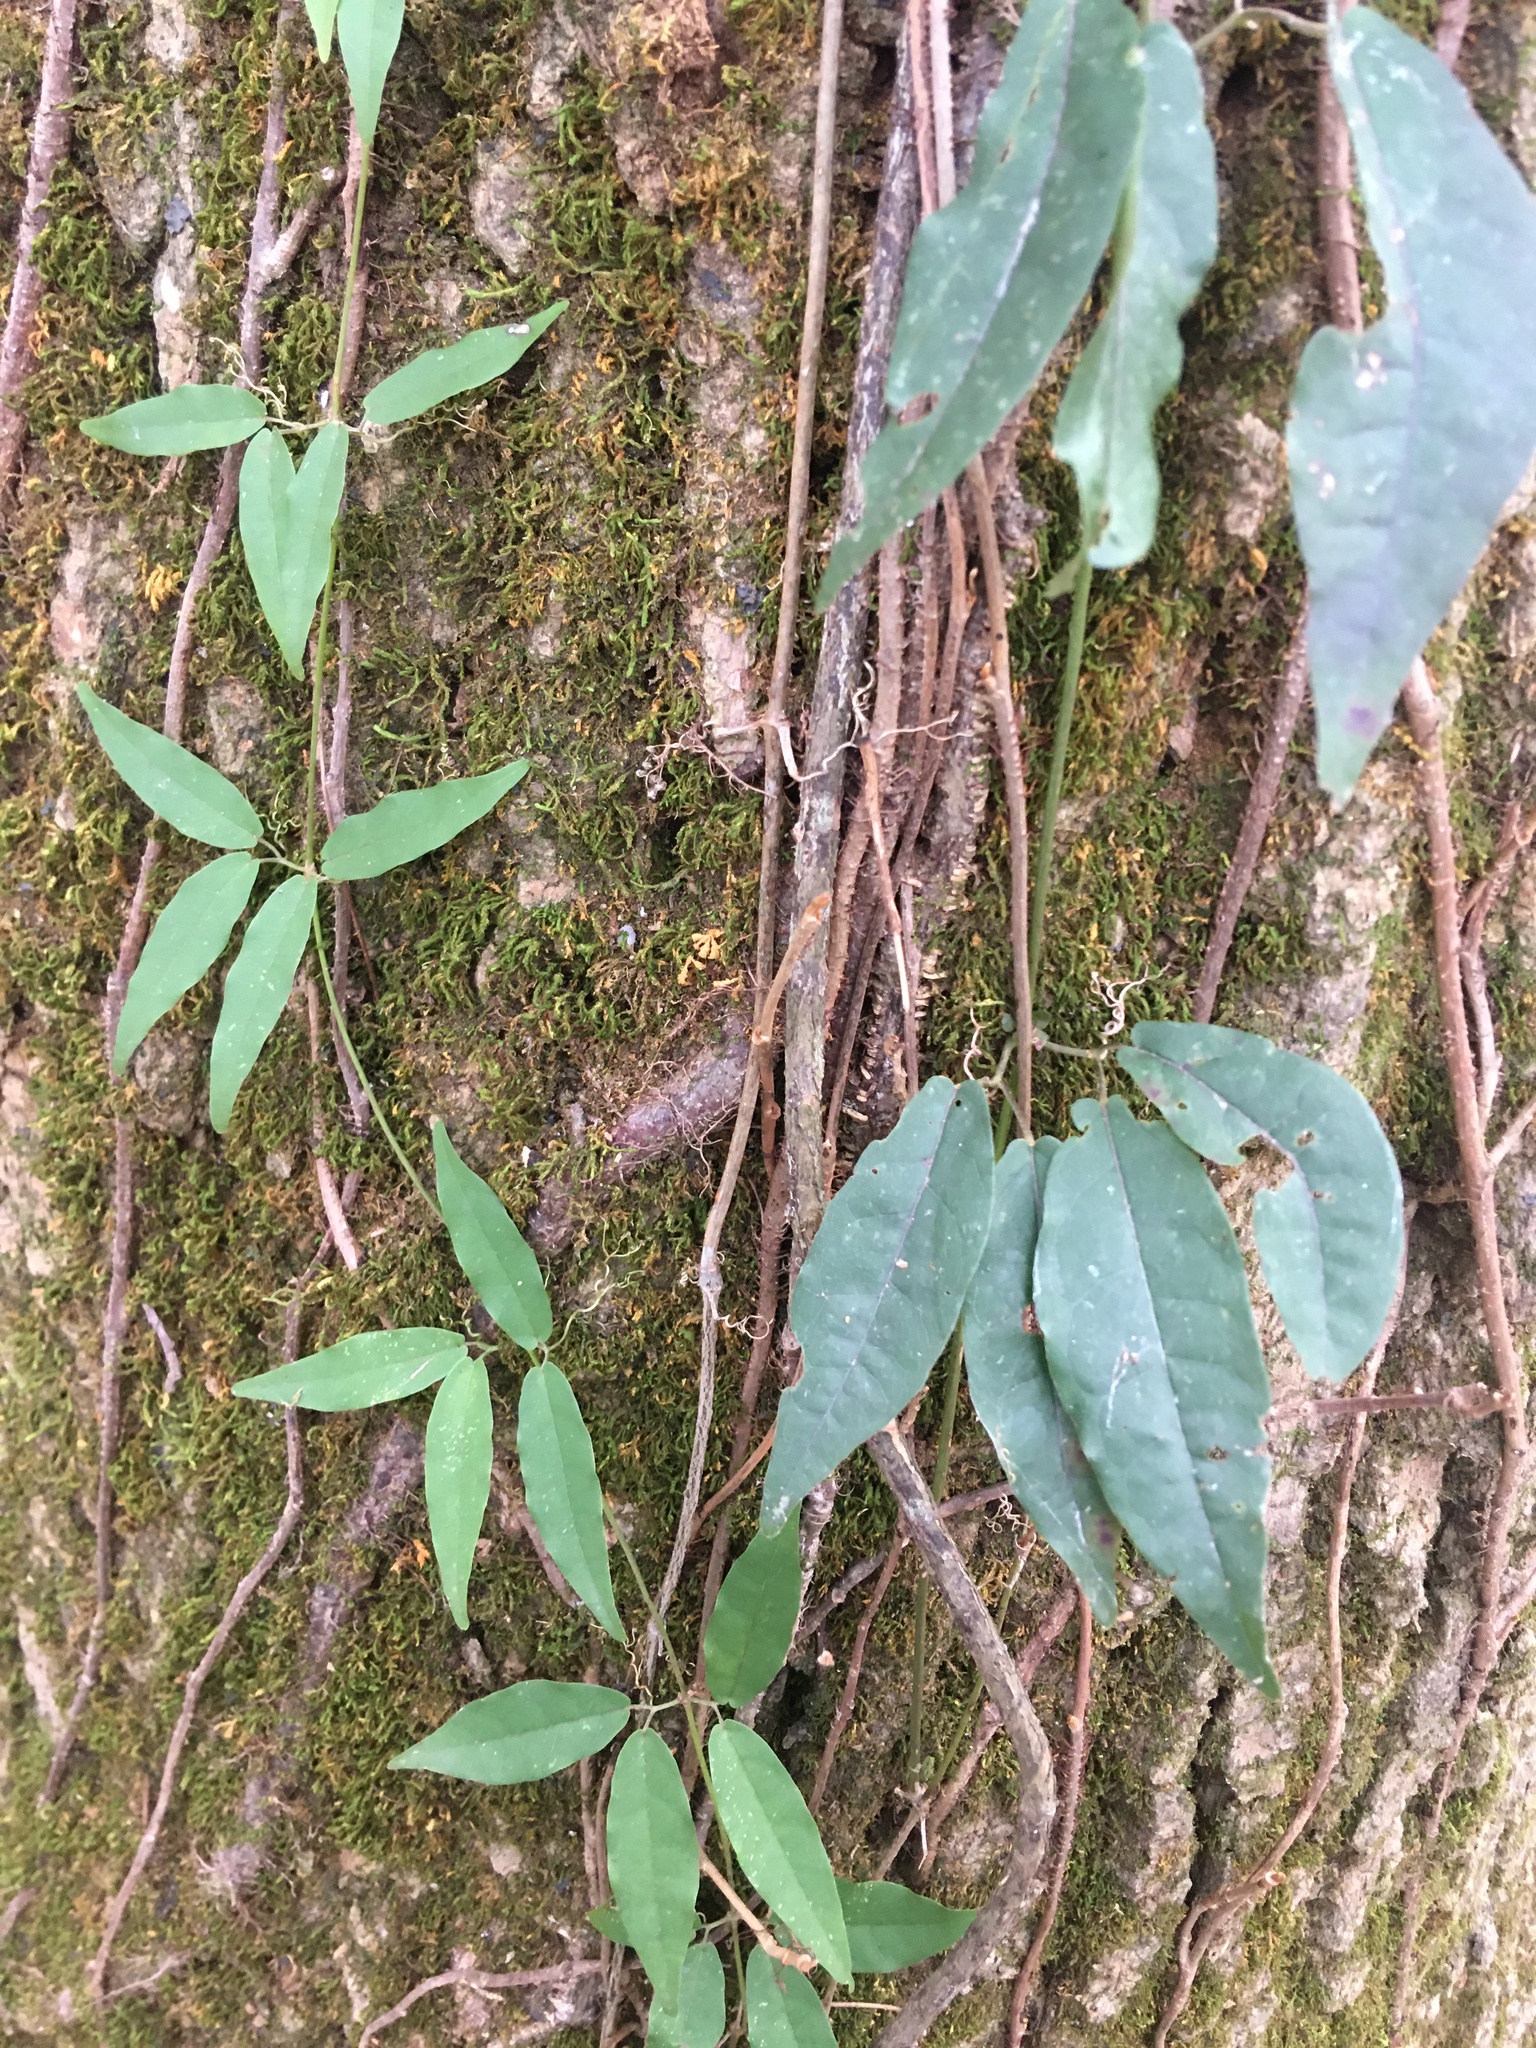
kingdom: Plantae
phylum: Tracheophyta
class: Magnoliopsida
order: Lamiales
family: Bignoniaceae
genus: Bignonia
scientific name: Bignonia capreolata
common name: Crossvine
